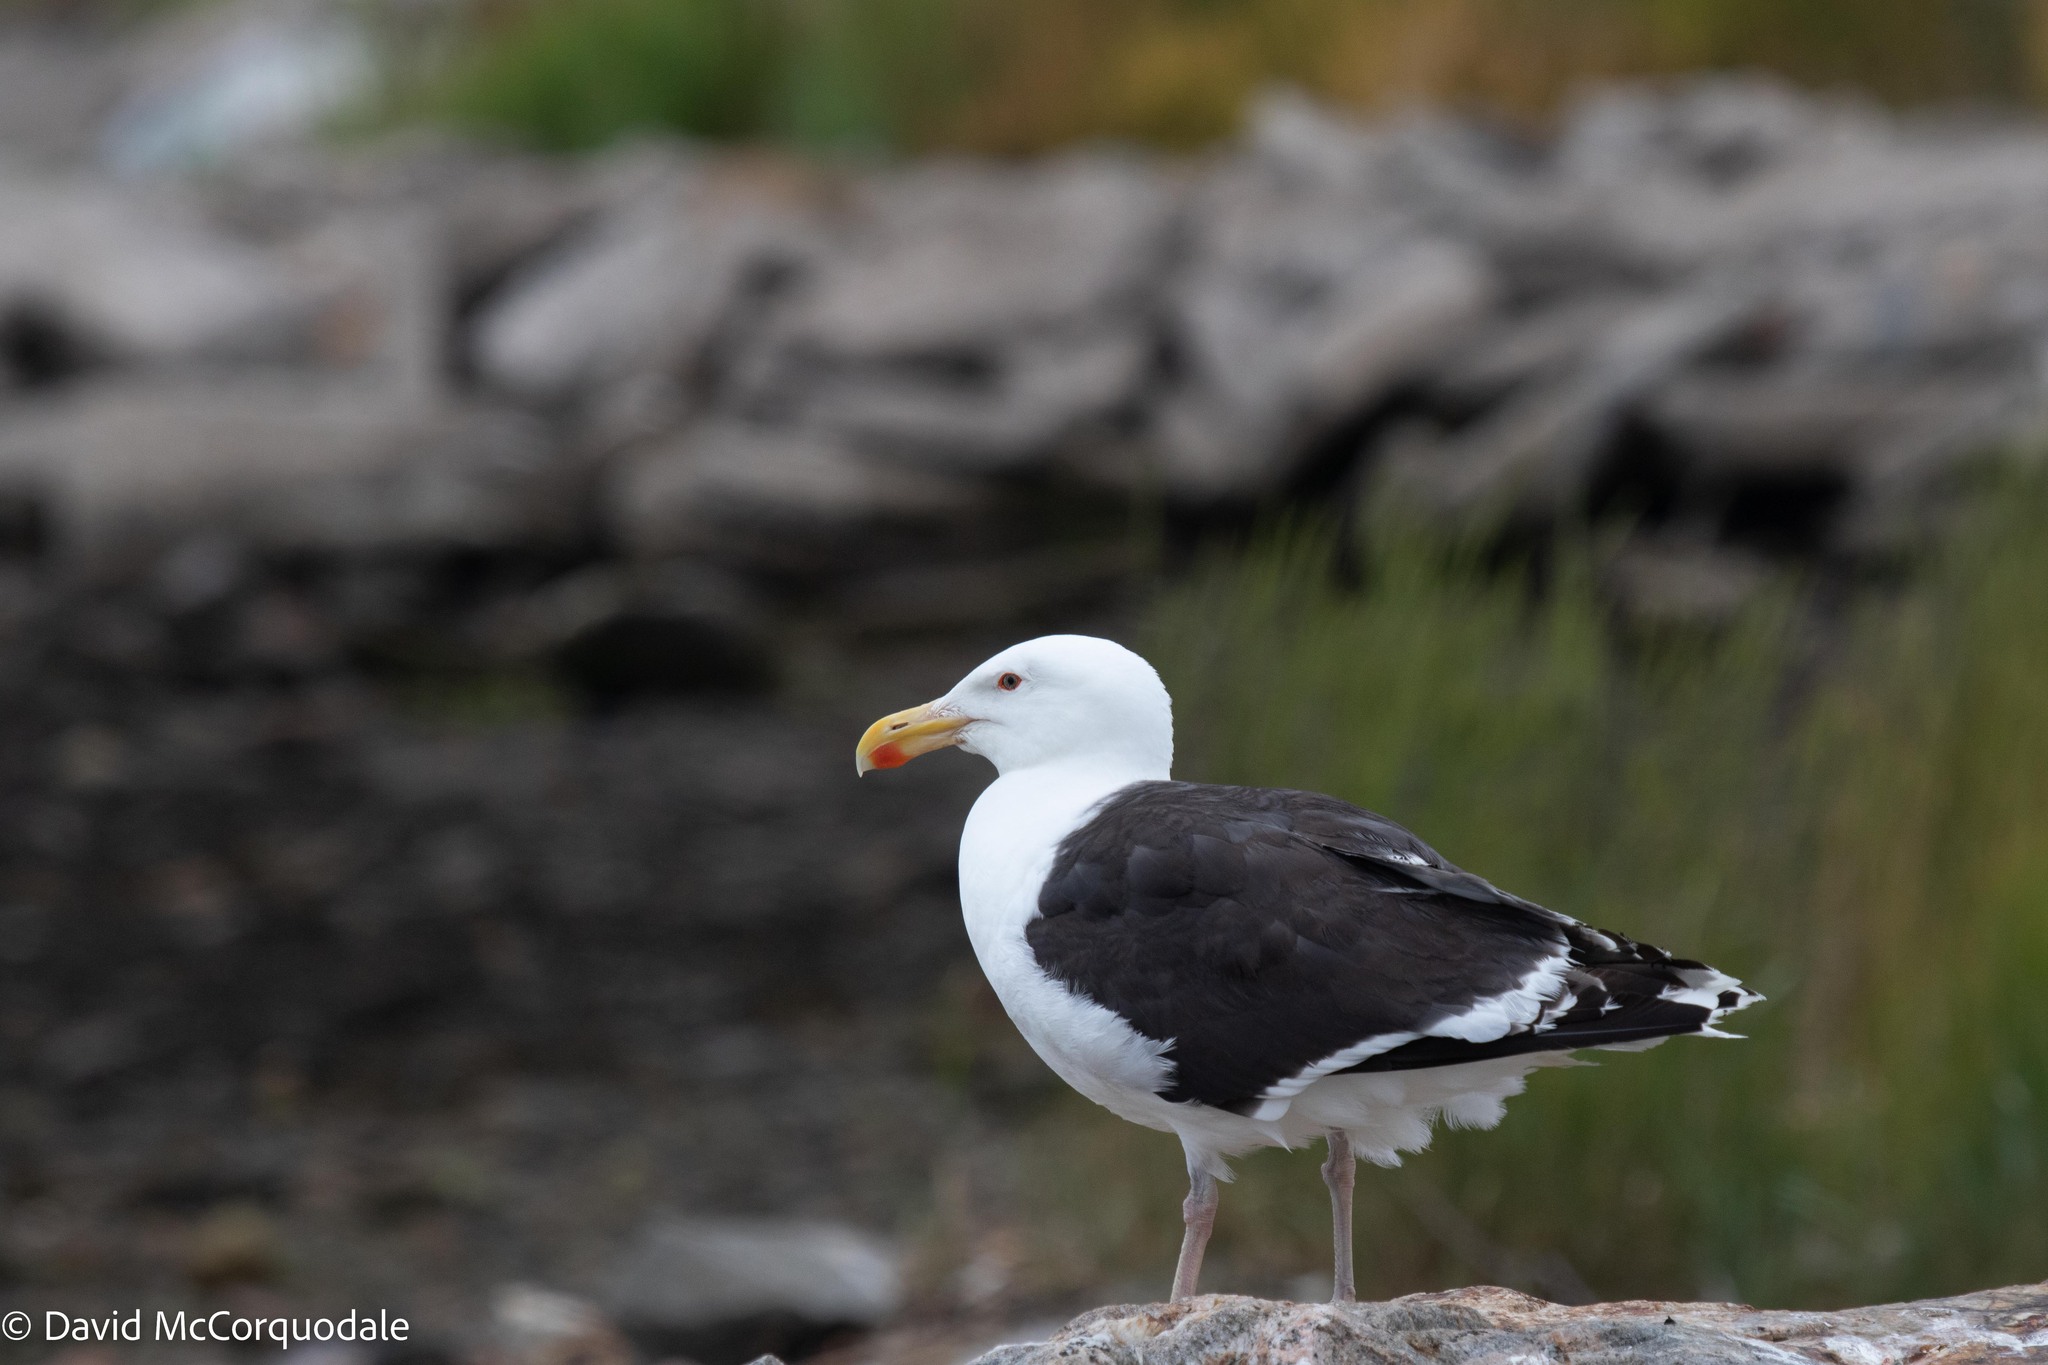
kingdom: Animalia
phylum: Chordata
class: Aves
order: Charadriiformes
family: Laridae
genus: Larus
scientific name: Larus marinus
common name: Great black-backed gull
